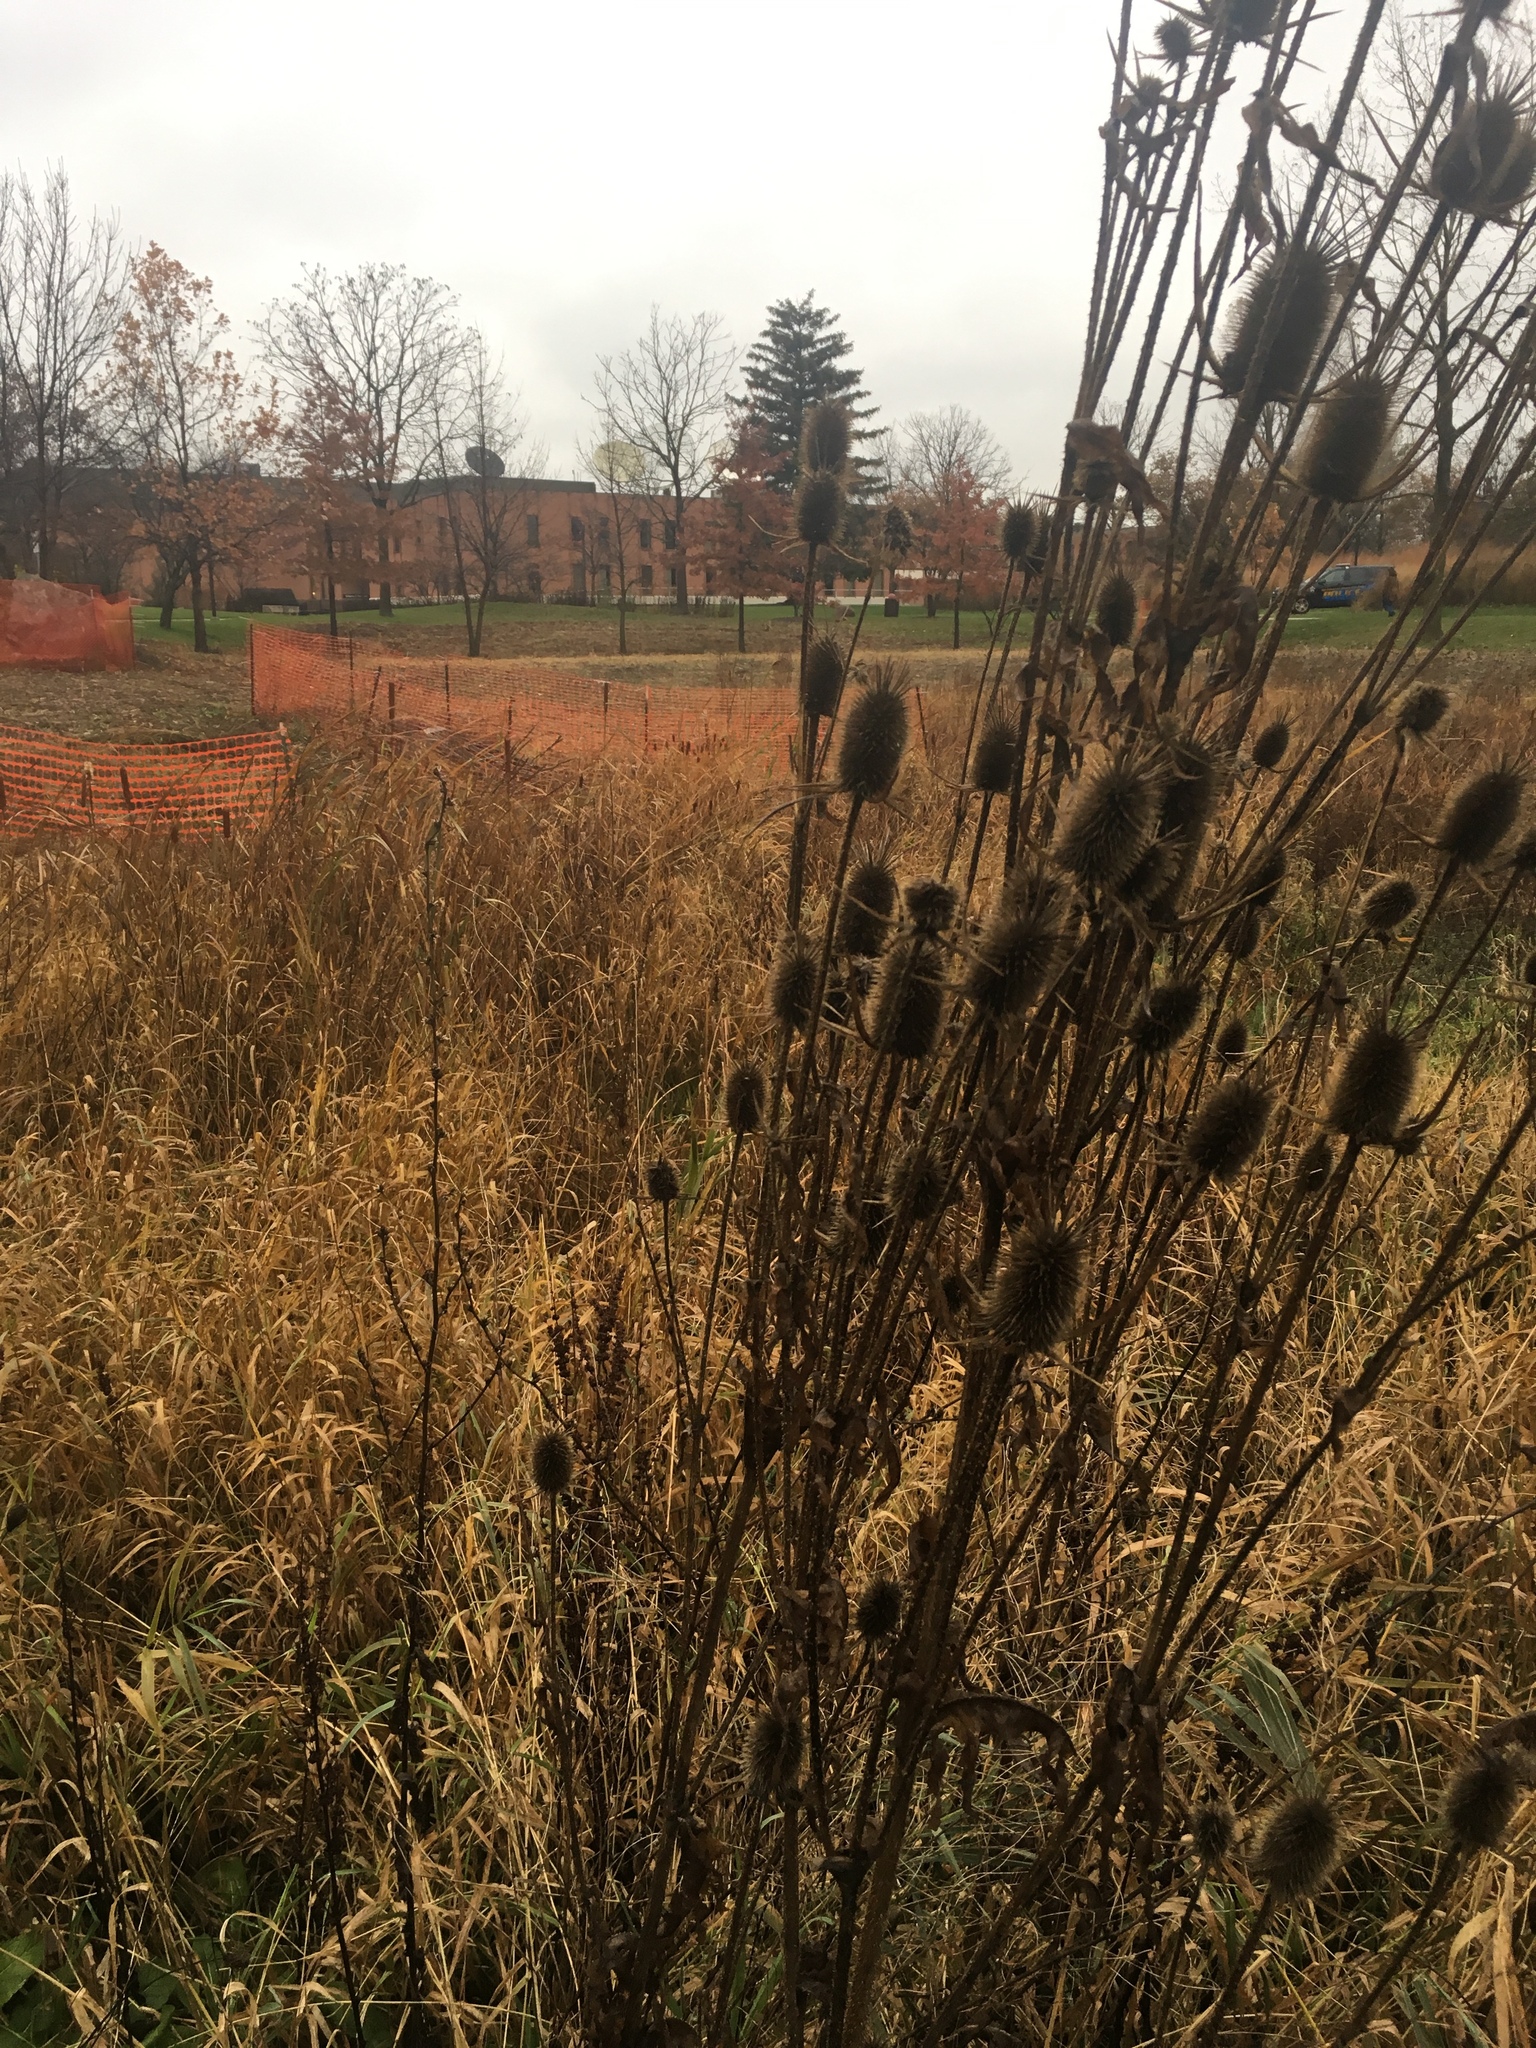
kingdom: Plantae
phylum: Tracheophyta
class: Magnoliopsida
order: Dipsacales
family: Caprifoliaceae
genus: Dipsacus
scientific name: Dipsacus laciniatus
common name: Cut-leaved teasel
